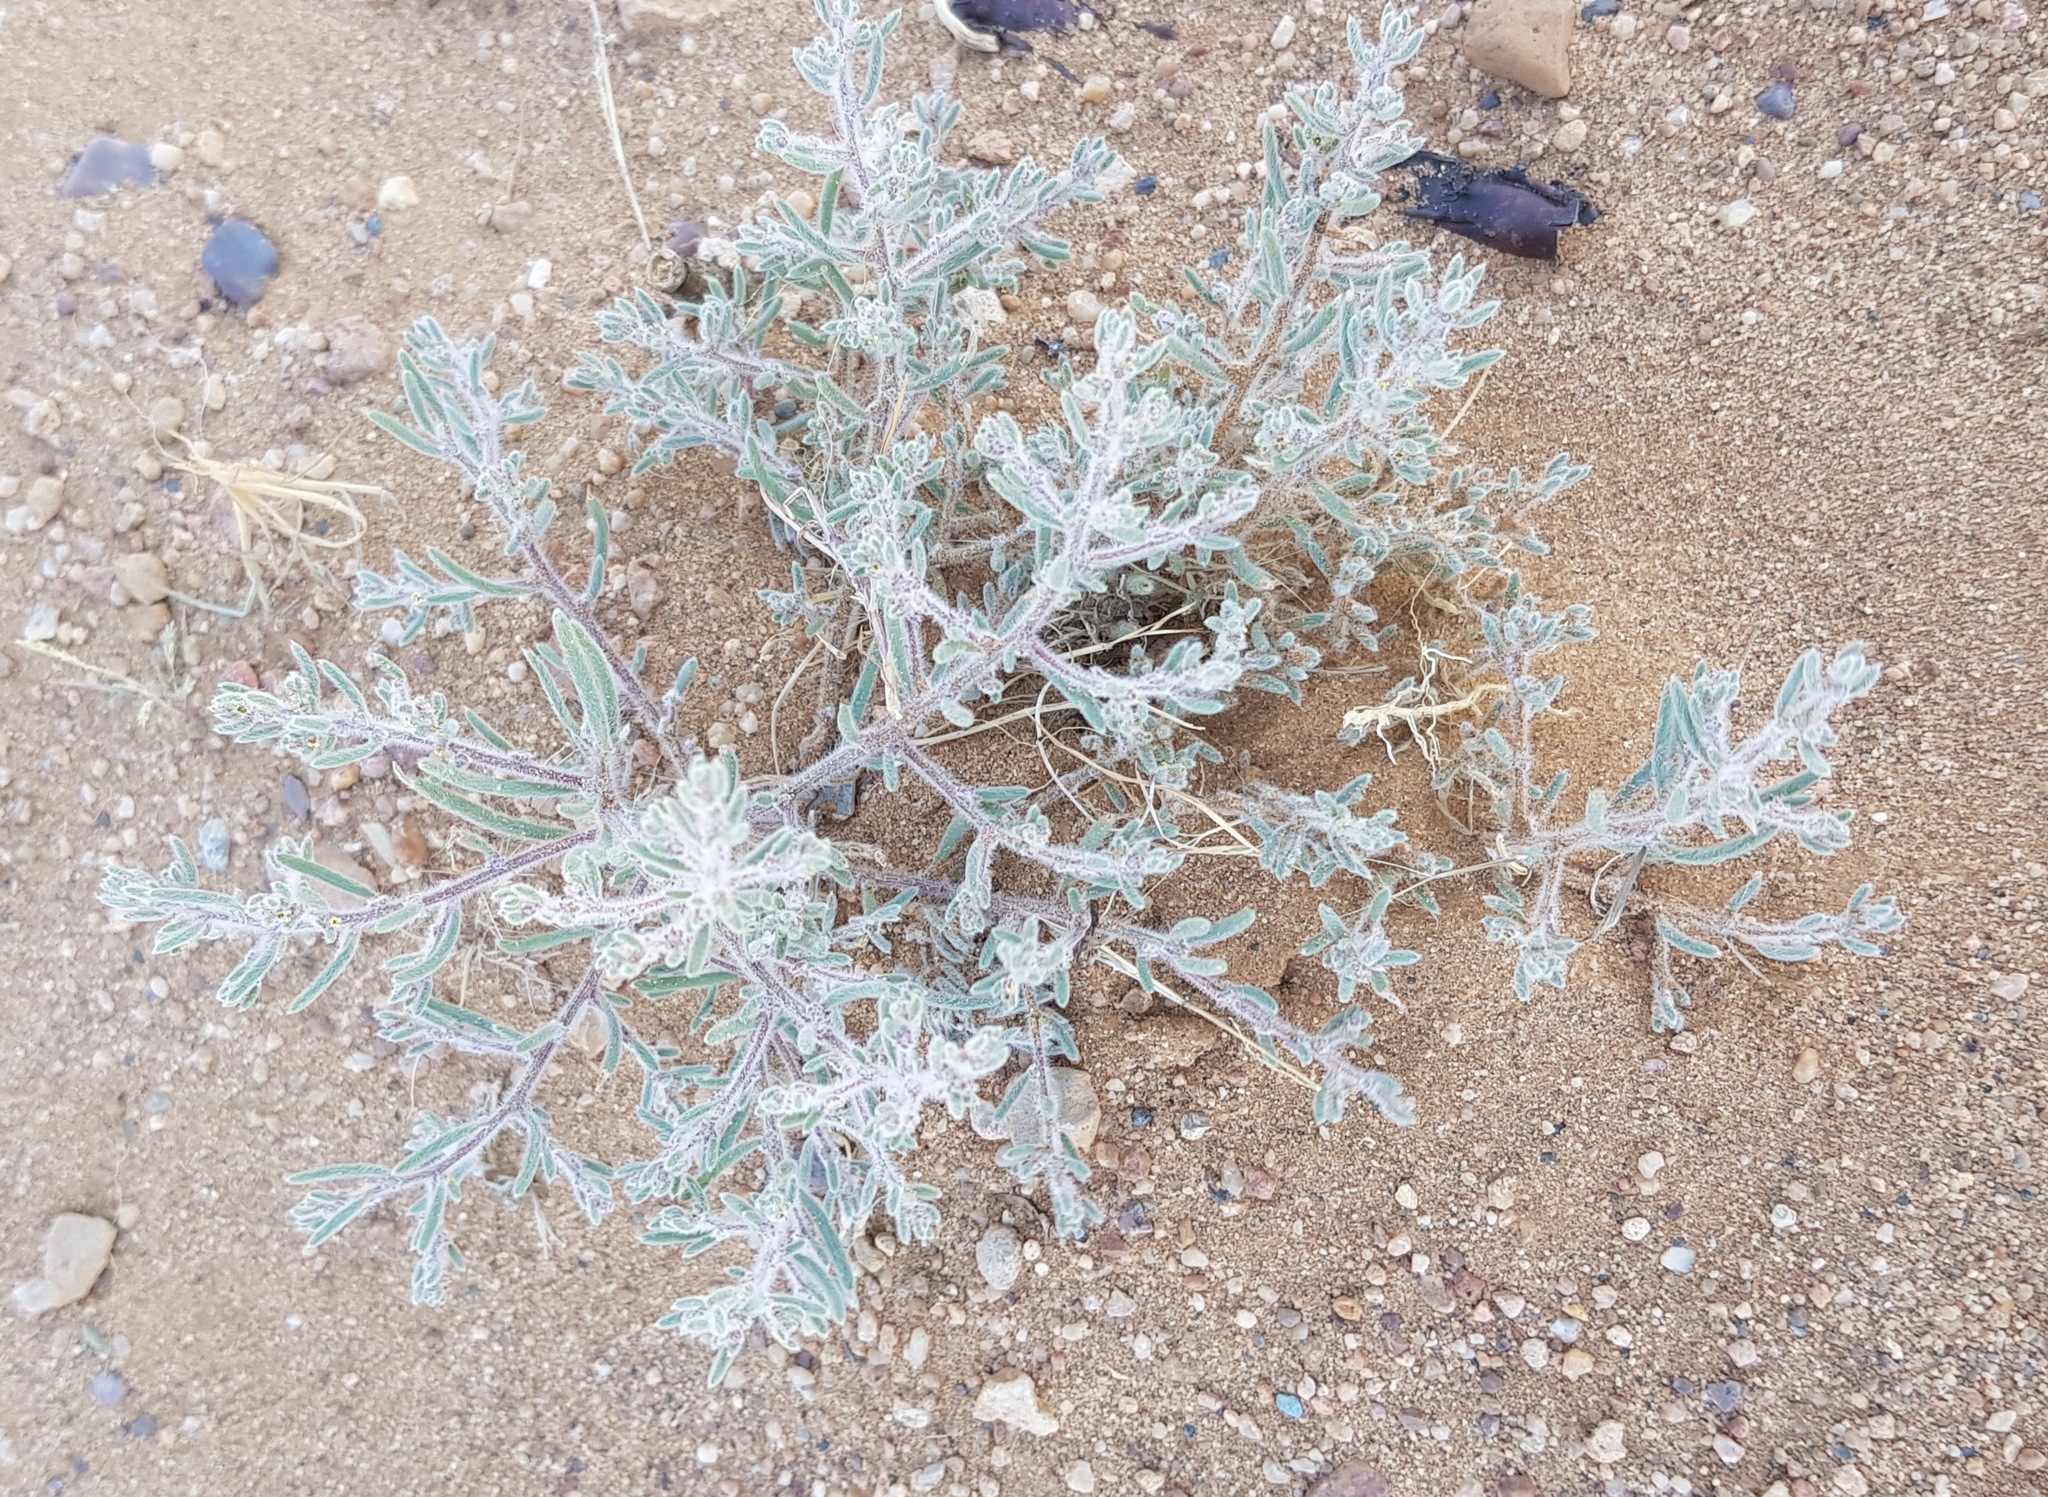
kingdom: Plantae
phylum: Tracheophyta
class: Magnoliopsida
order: Caryophyllales
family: Amaranthaceae
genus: Grubovia
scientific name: Grubovia dasyphylla
